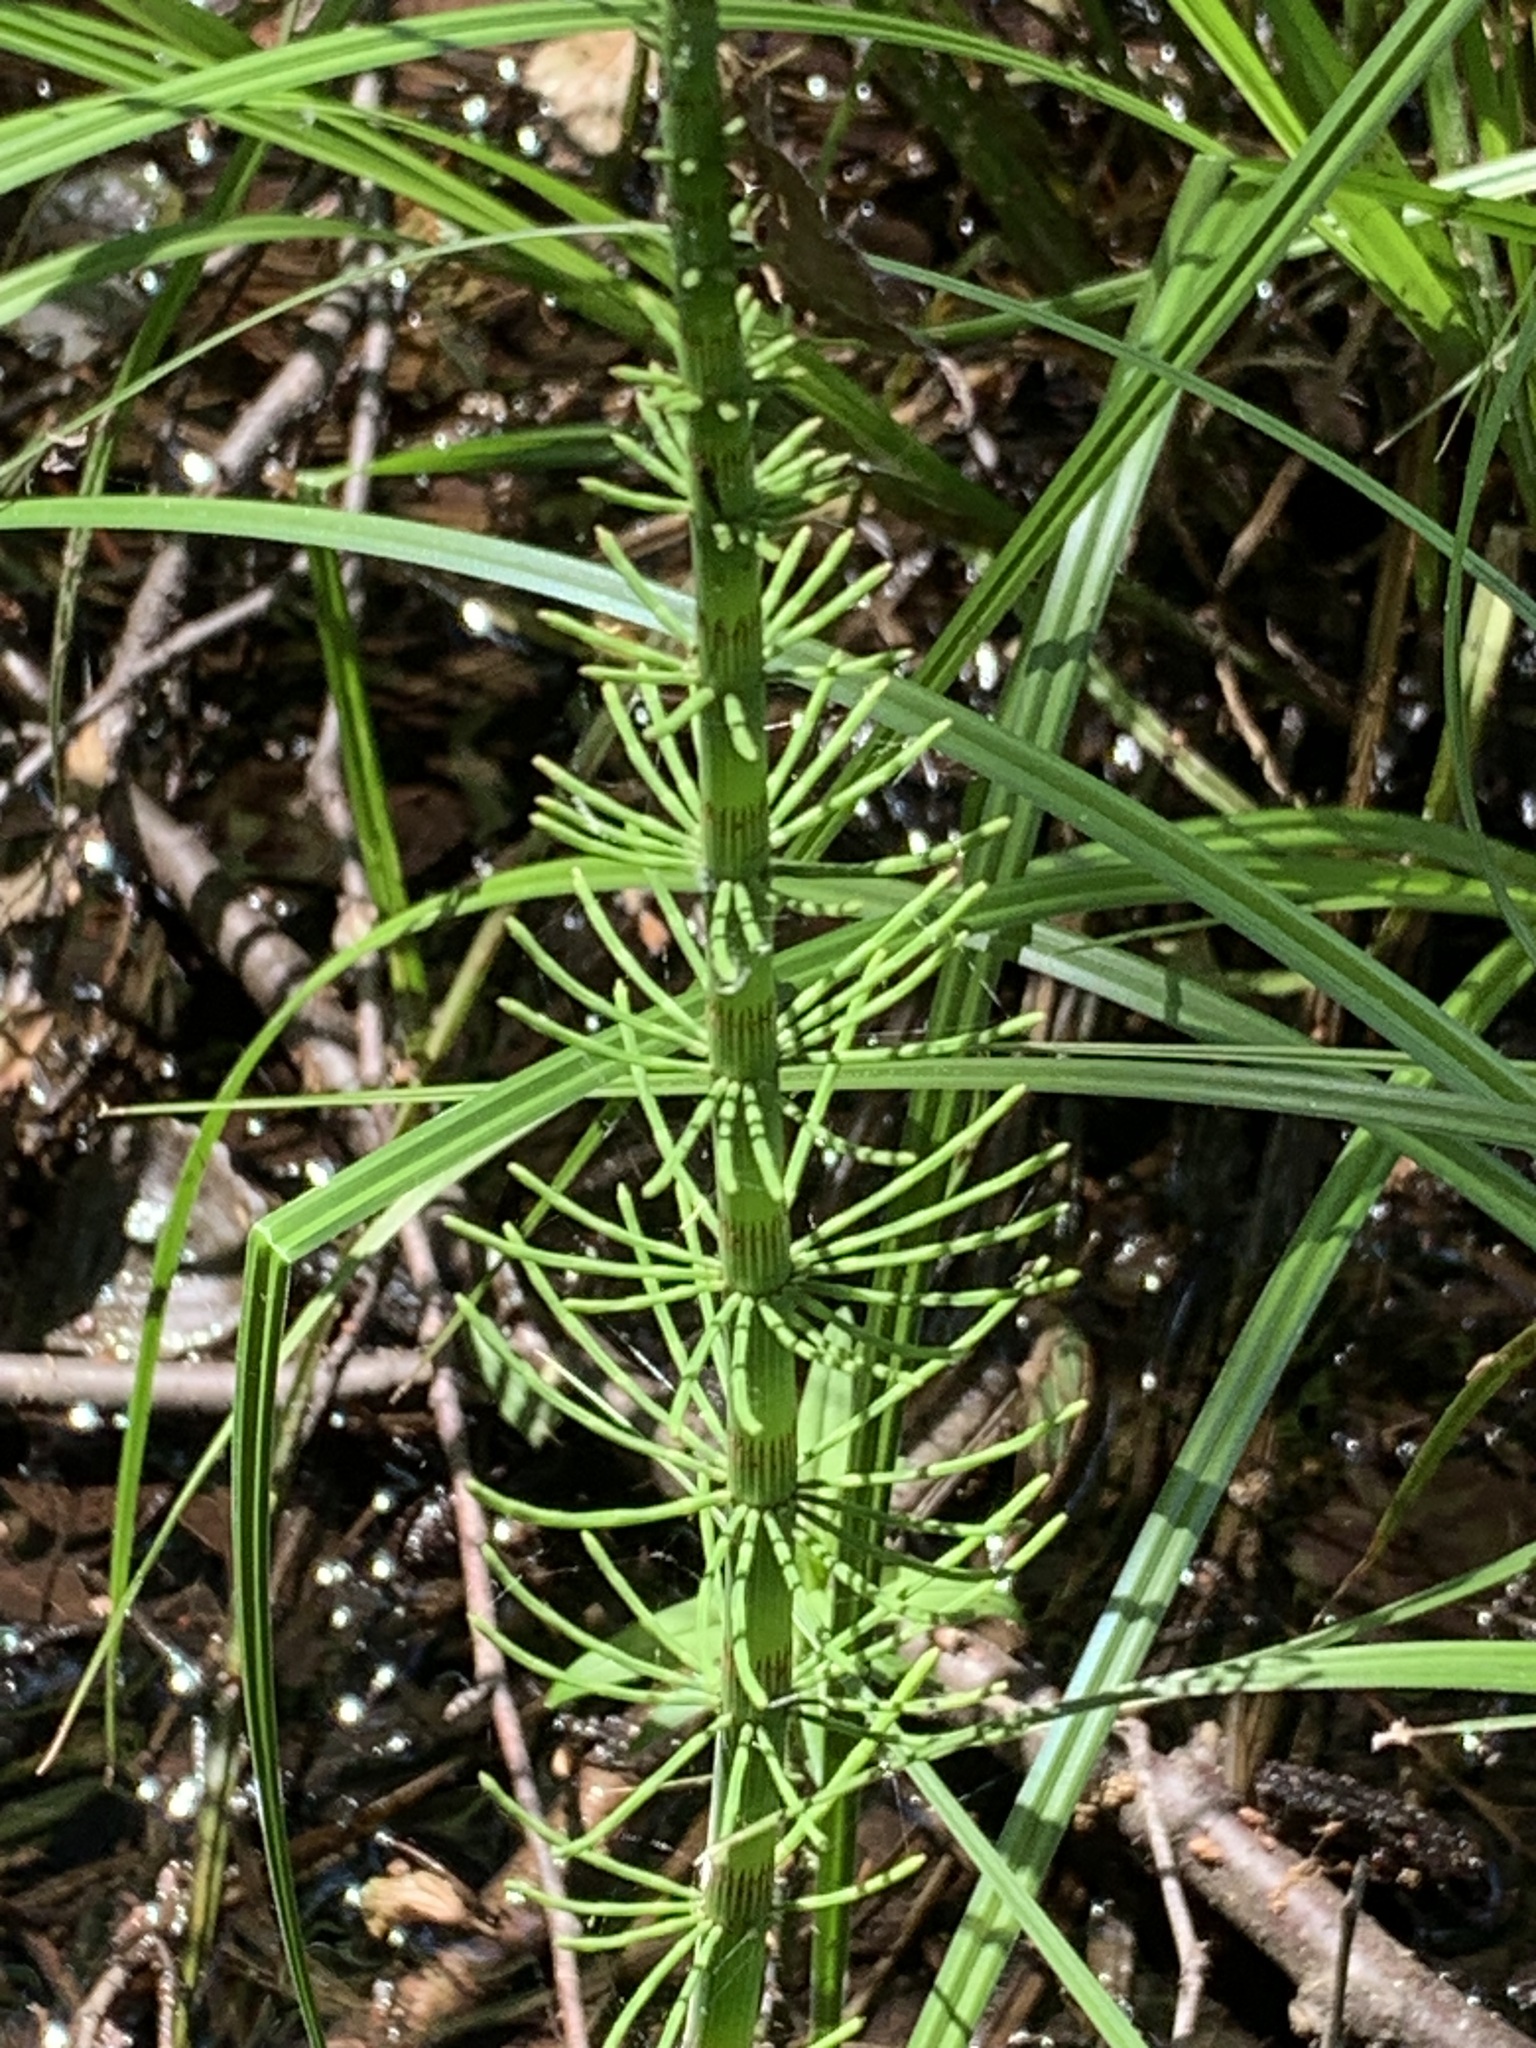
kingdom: Plantae
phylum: Tracheophyta
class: Polypodiopsida
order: Equisetales
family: Equisetaceae
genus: Equisetum
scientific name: Equisetum fluviatile
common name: Water horsetail
